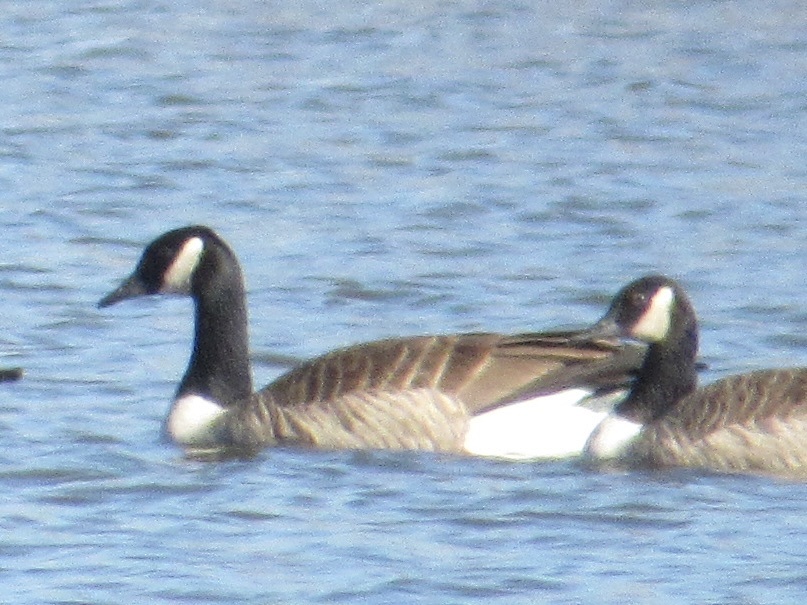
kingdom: Animalia
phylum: Chordata
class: Aves
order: Anseriformes
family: Anatidae
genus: Branta
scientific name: Branta canadensis
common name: Canada goose
